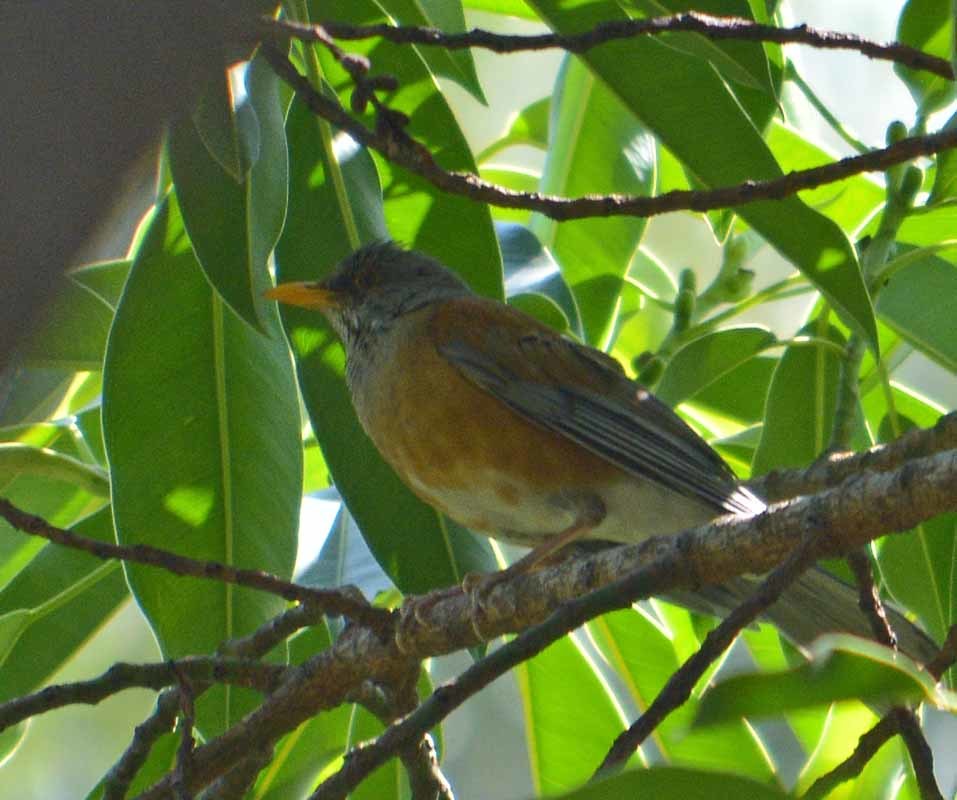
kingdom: Animalia
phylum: Chordata
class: Aves
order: Passeriformes
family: Turdidae
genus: Turdus
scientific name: Turdus rufopalliatus
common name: Rufous-backed robin
